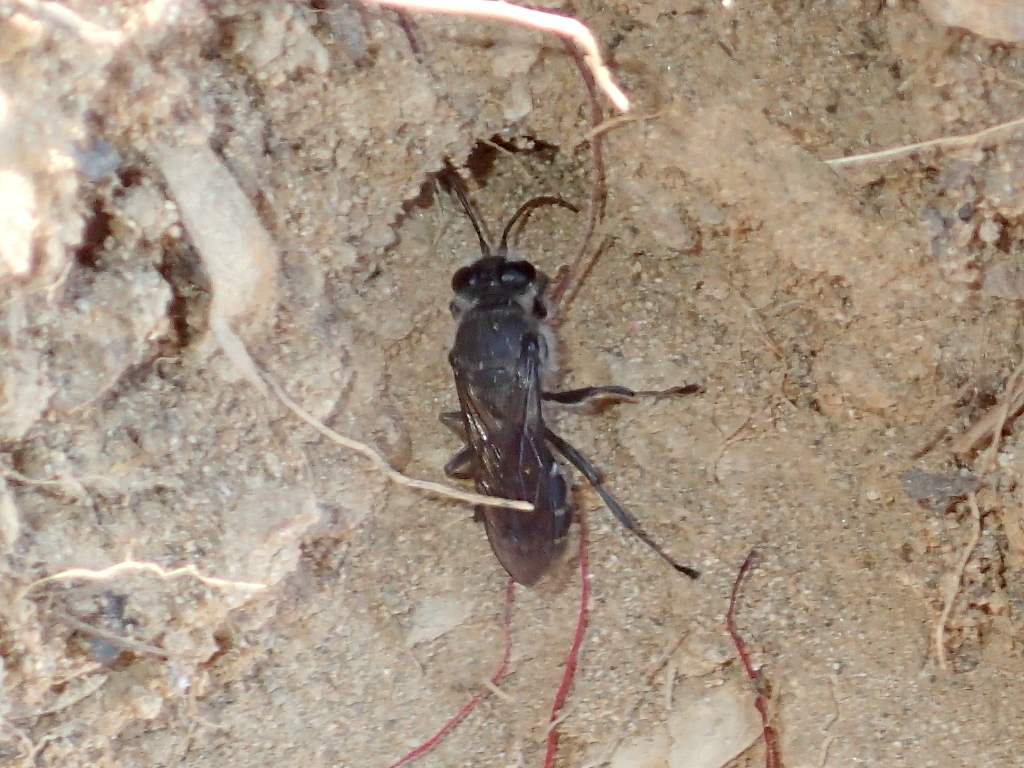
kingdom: Animalia
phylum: Arthropoda
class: Insecta
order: Hymenoptera
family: Crabronidae
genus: Pison
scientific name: Pison spinolae
